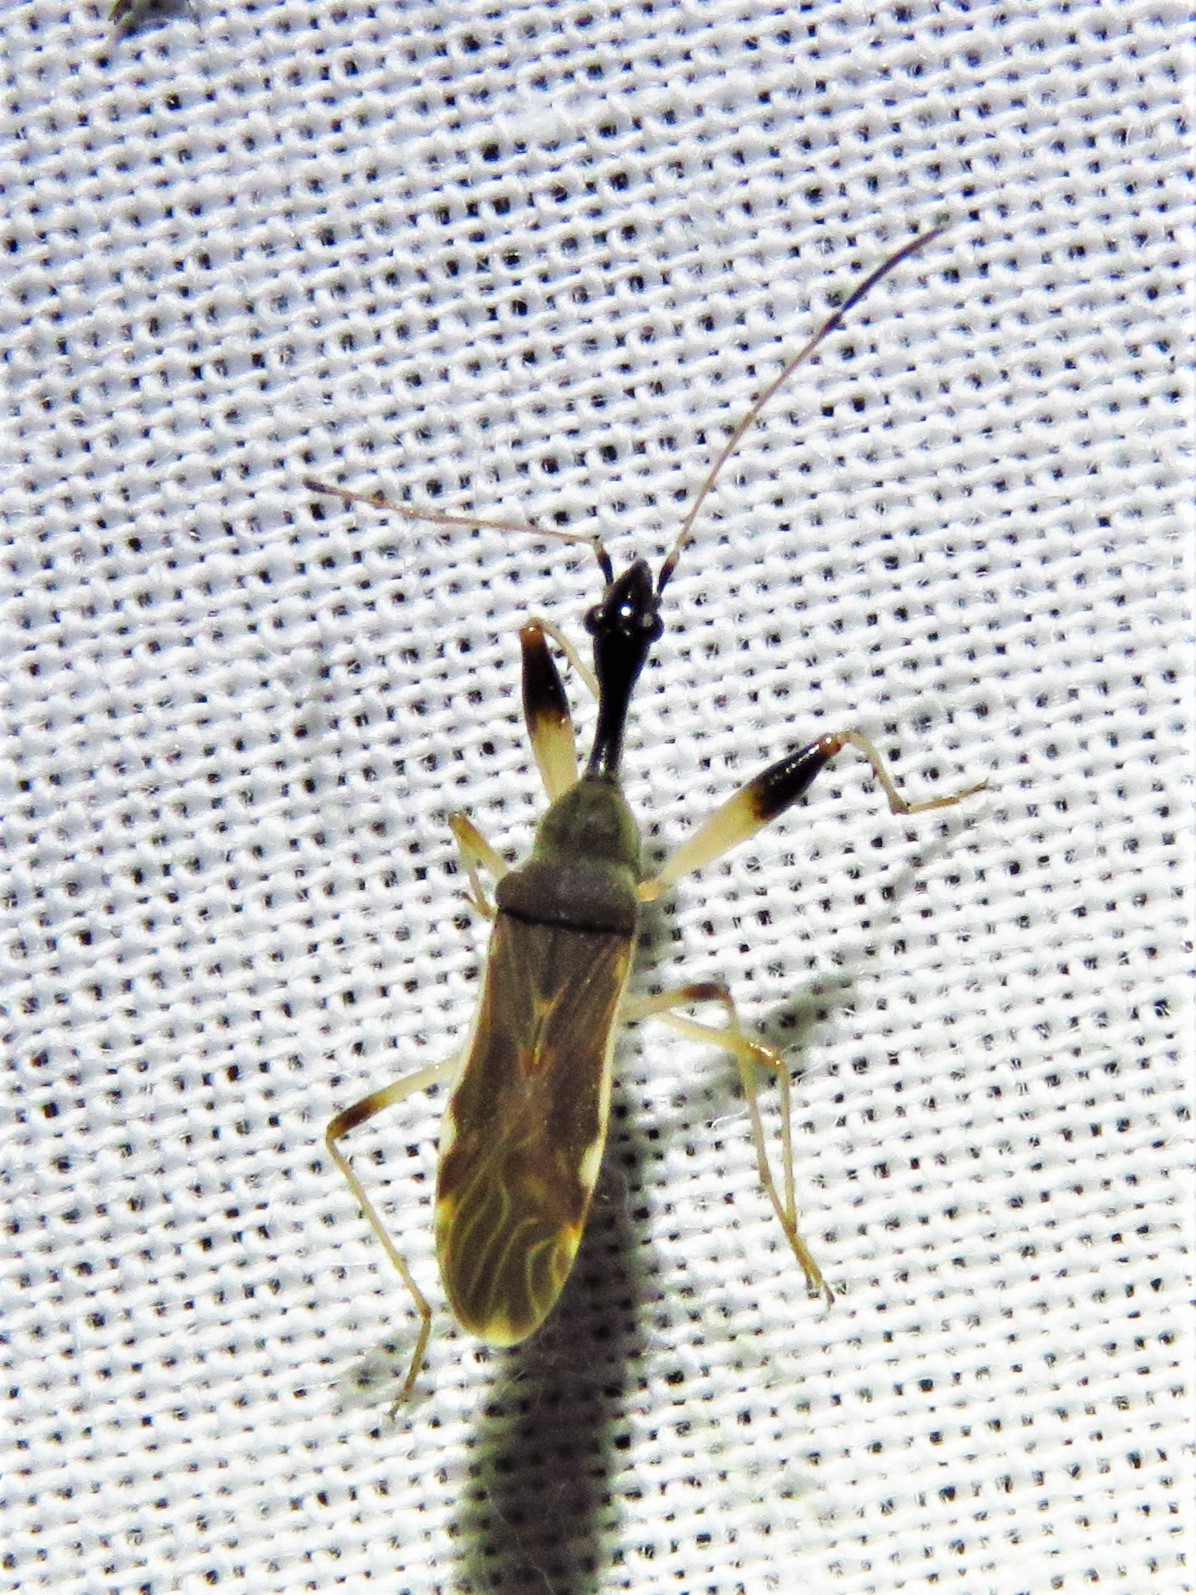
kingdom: Animalia
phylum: Arthropoda
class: Insecta
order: Hemiptera
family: Rhyparochromidae
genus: Myodocha
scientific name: Myodocha serripes
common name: Long-necked seed bug
